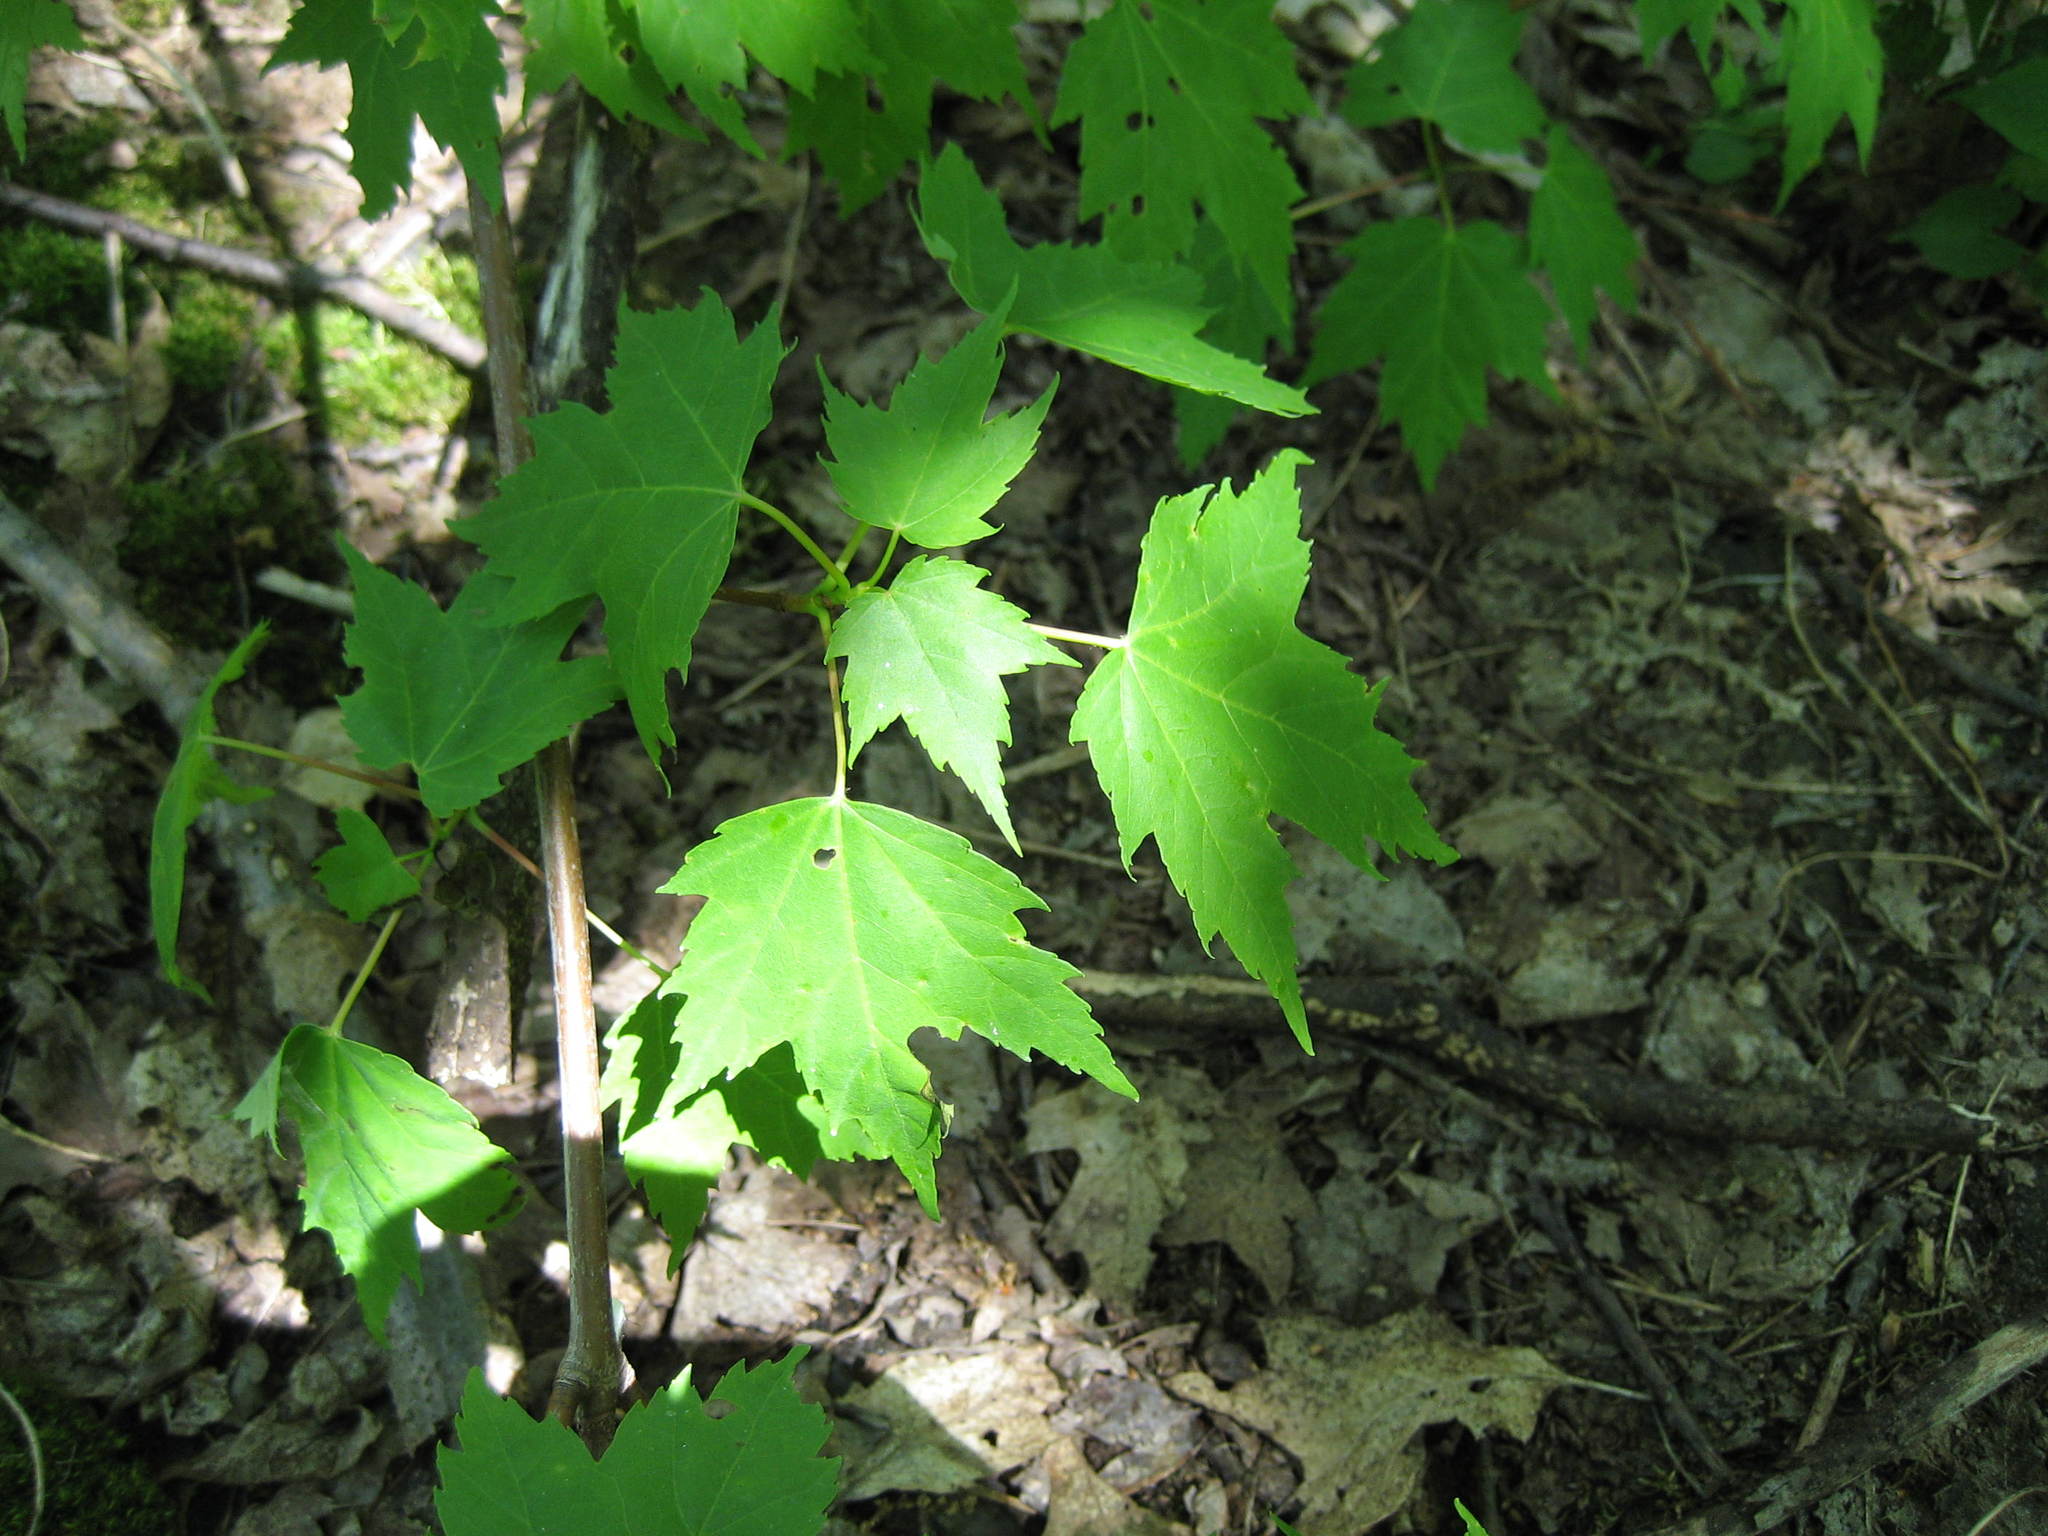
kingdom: Plantae
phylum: Tracheophyta
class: Magnoliopsida
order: Sapindales
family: Sapindaceae
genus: Acer
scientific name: Acer rubrum
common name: Red maple
